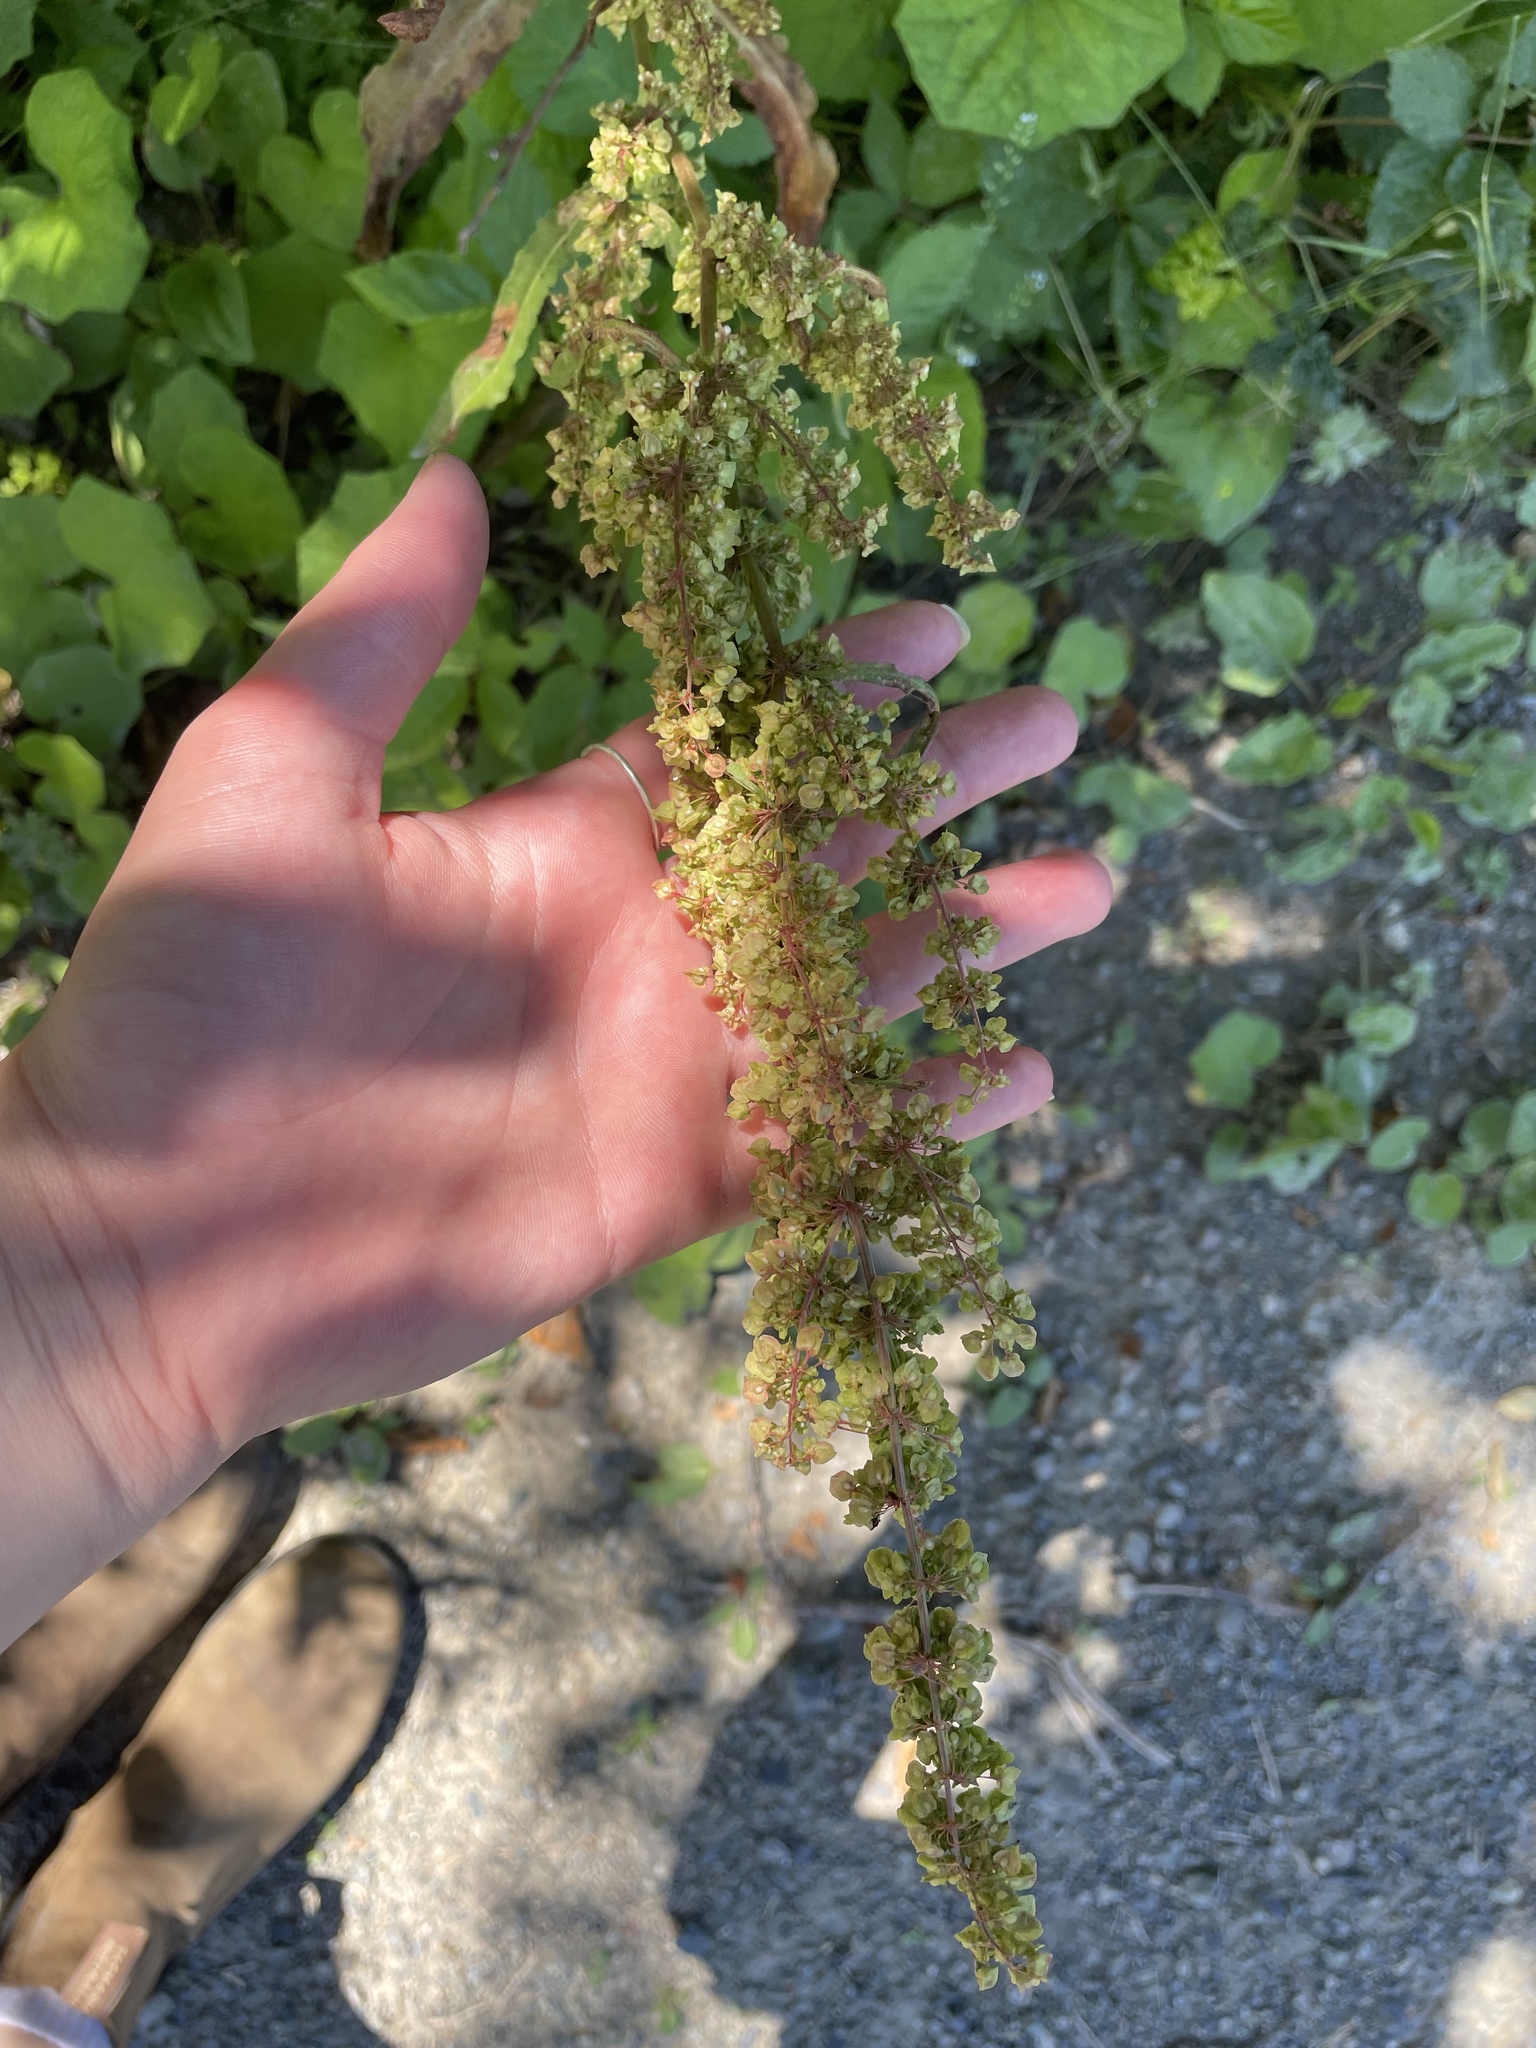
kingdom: Plantae
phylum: Tracheophyta
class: Magnoliopsida
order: Caryophyllales
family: Polygonaceae
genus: Rumex
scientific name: Rumex crispus
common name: Curled dock
